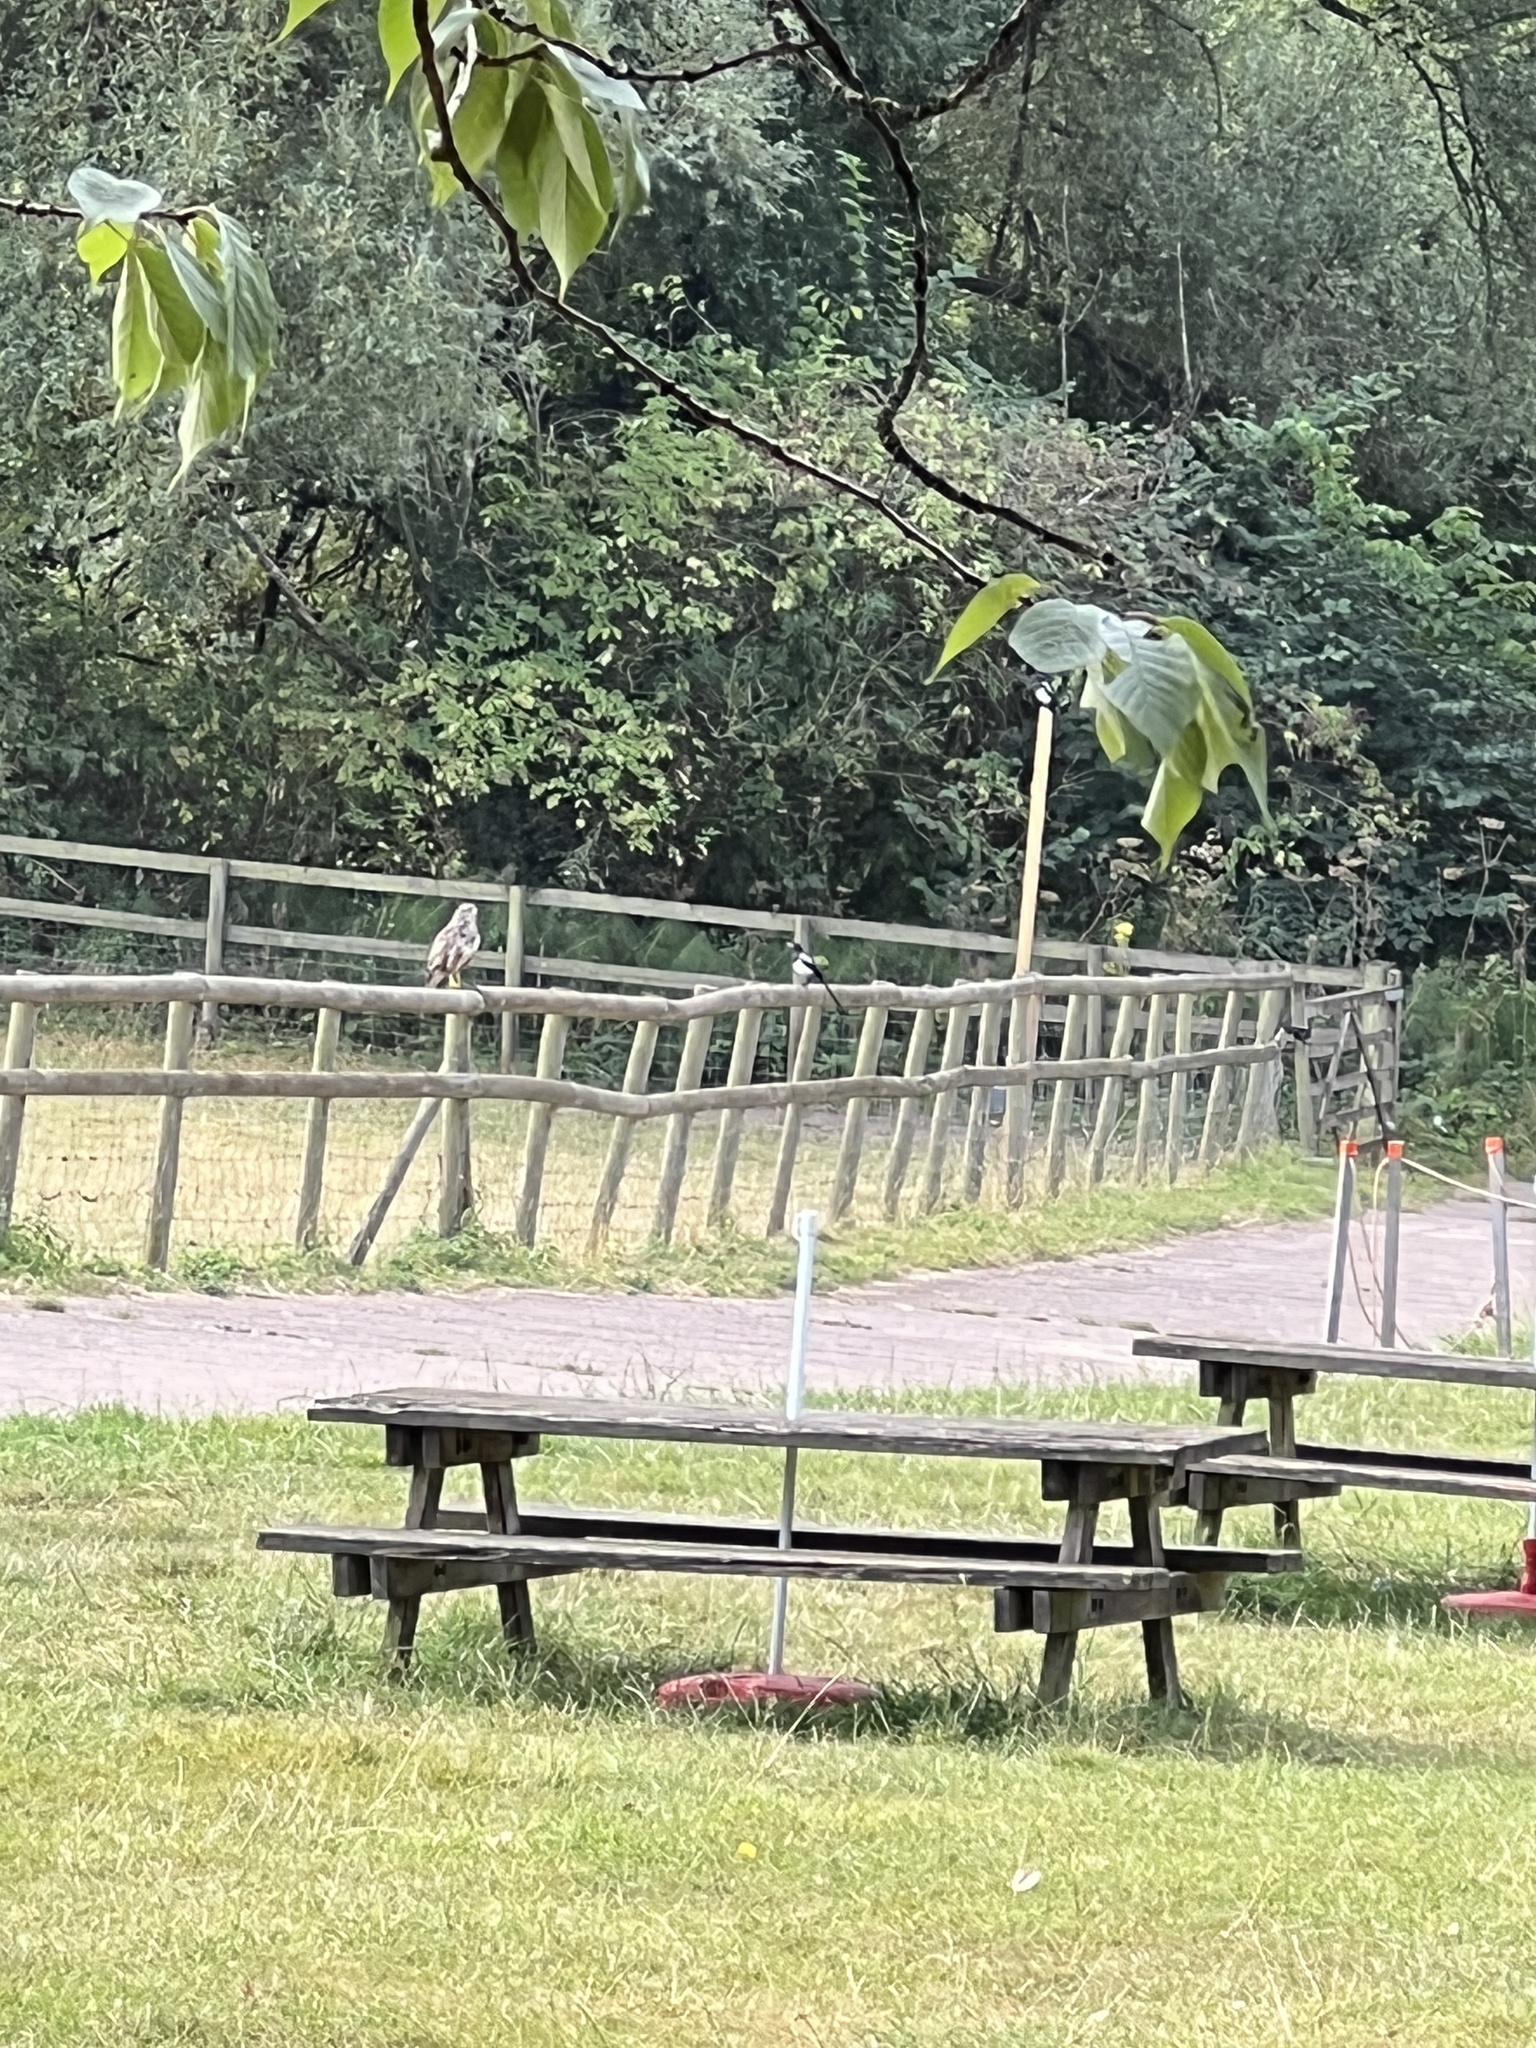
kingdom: Animalia
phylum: Chordata
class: Aves
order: Accipitriformes
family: Accipitridae
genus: Buteo
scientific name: Buteo buteo
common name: Common buzzard
